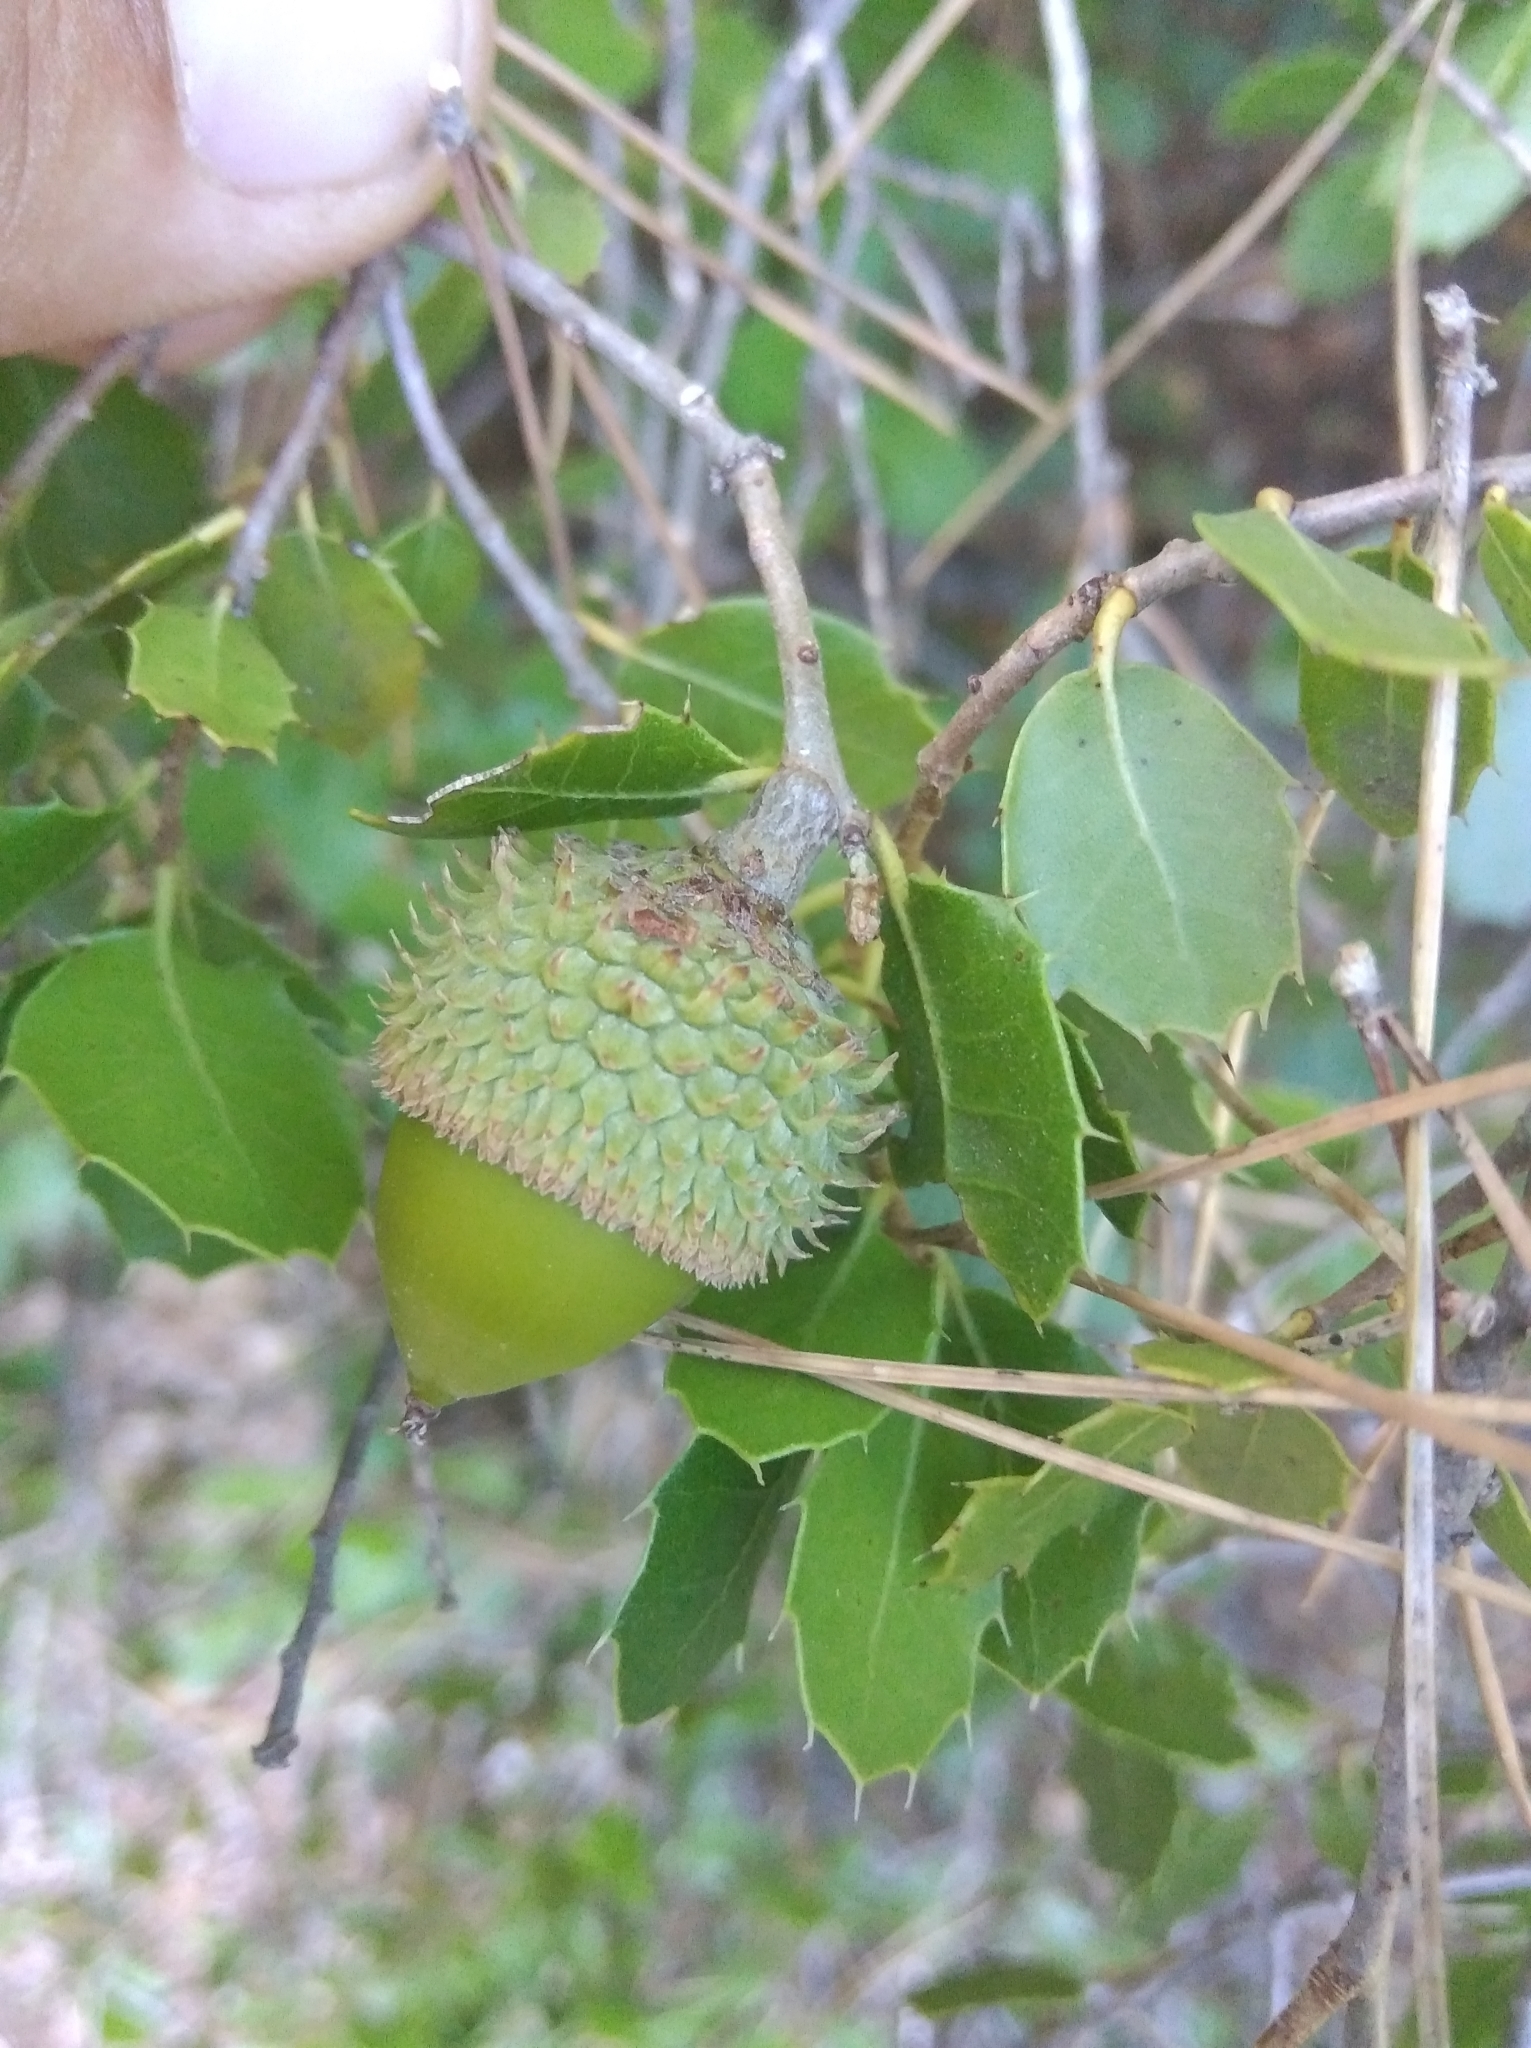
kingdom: Plantae
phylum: Tracheophyta
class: Magnoliopsida
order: Fagales
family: Fagaceae
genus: Quercus
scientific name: Quercus coccifera
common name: Kermes oak
